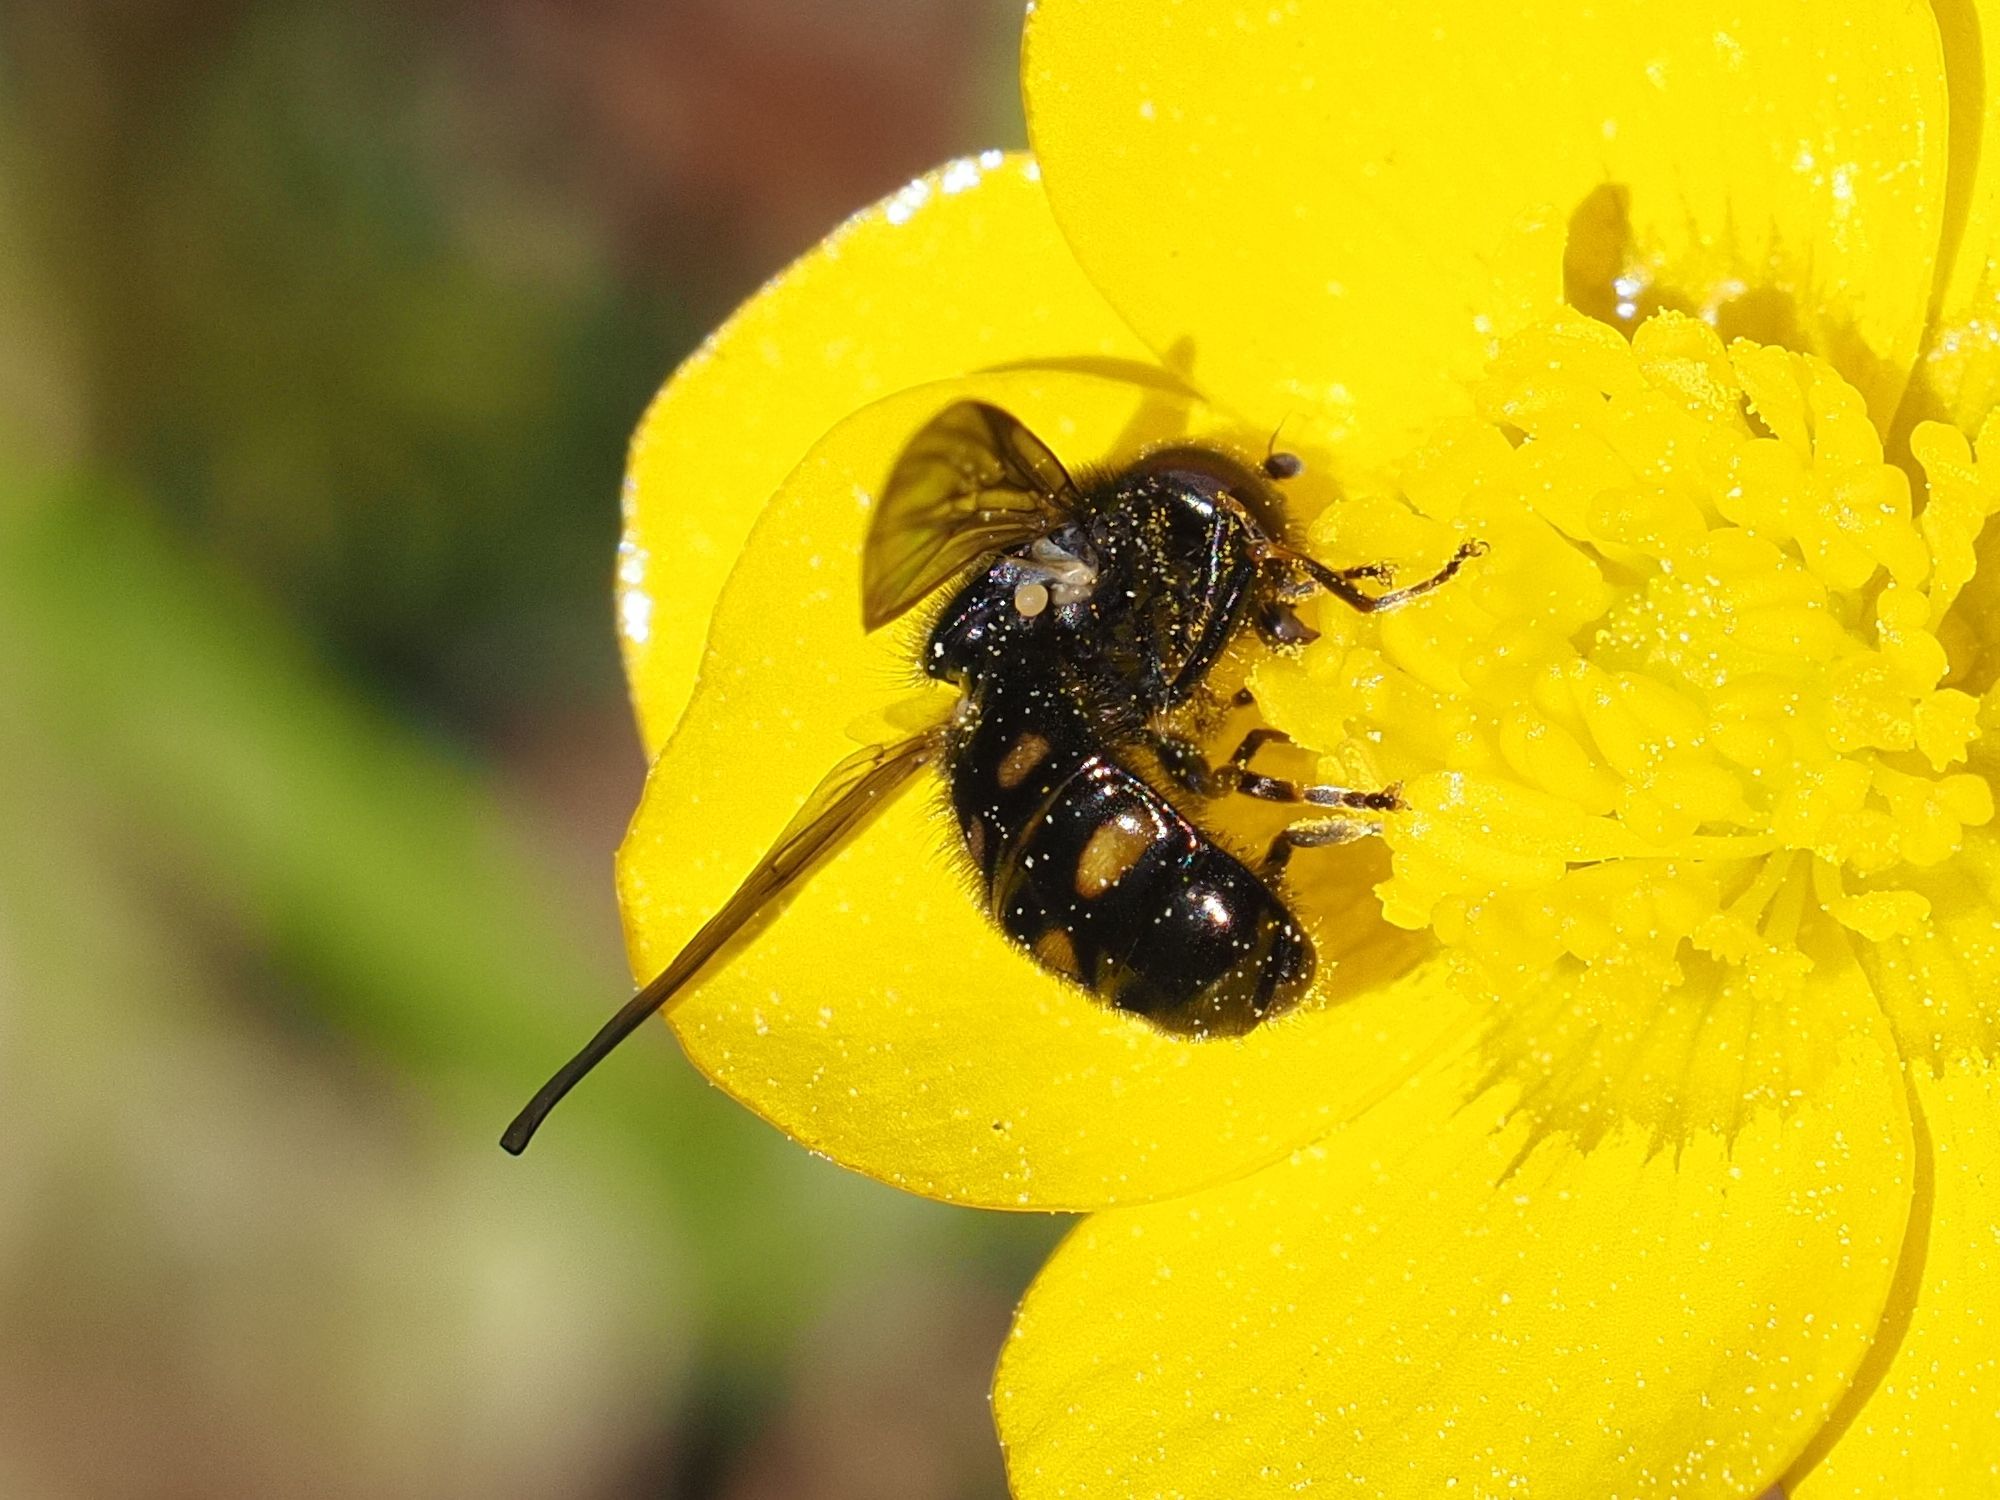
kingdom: Animalia
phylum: Arthropoda
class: Insecta
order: Diptera
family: Syrphidae
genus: Pipiza
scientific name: Pipiza quadrimaculata
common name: Four-spotted pipiza
